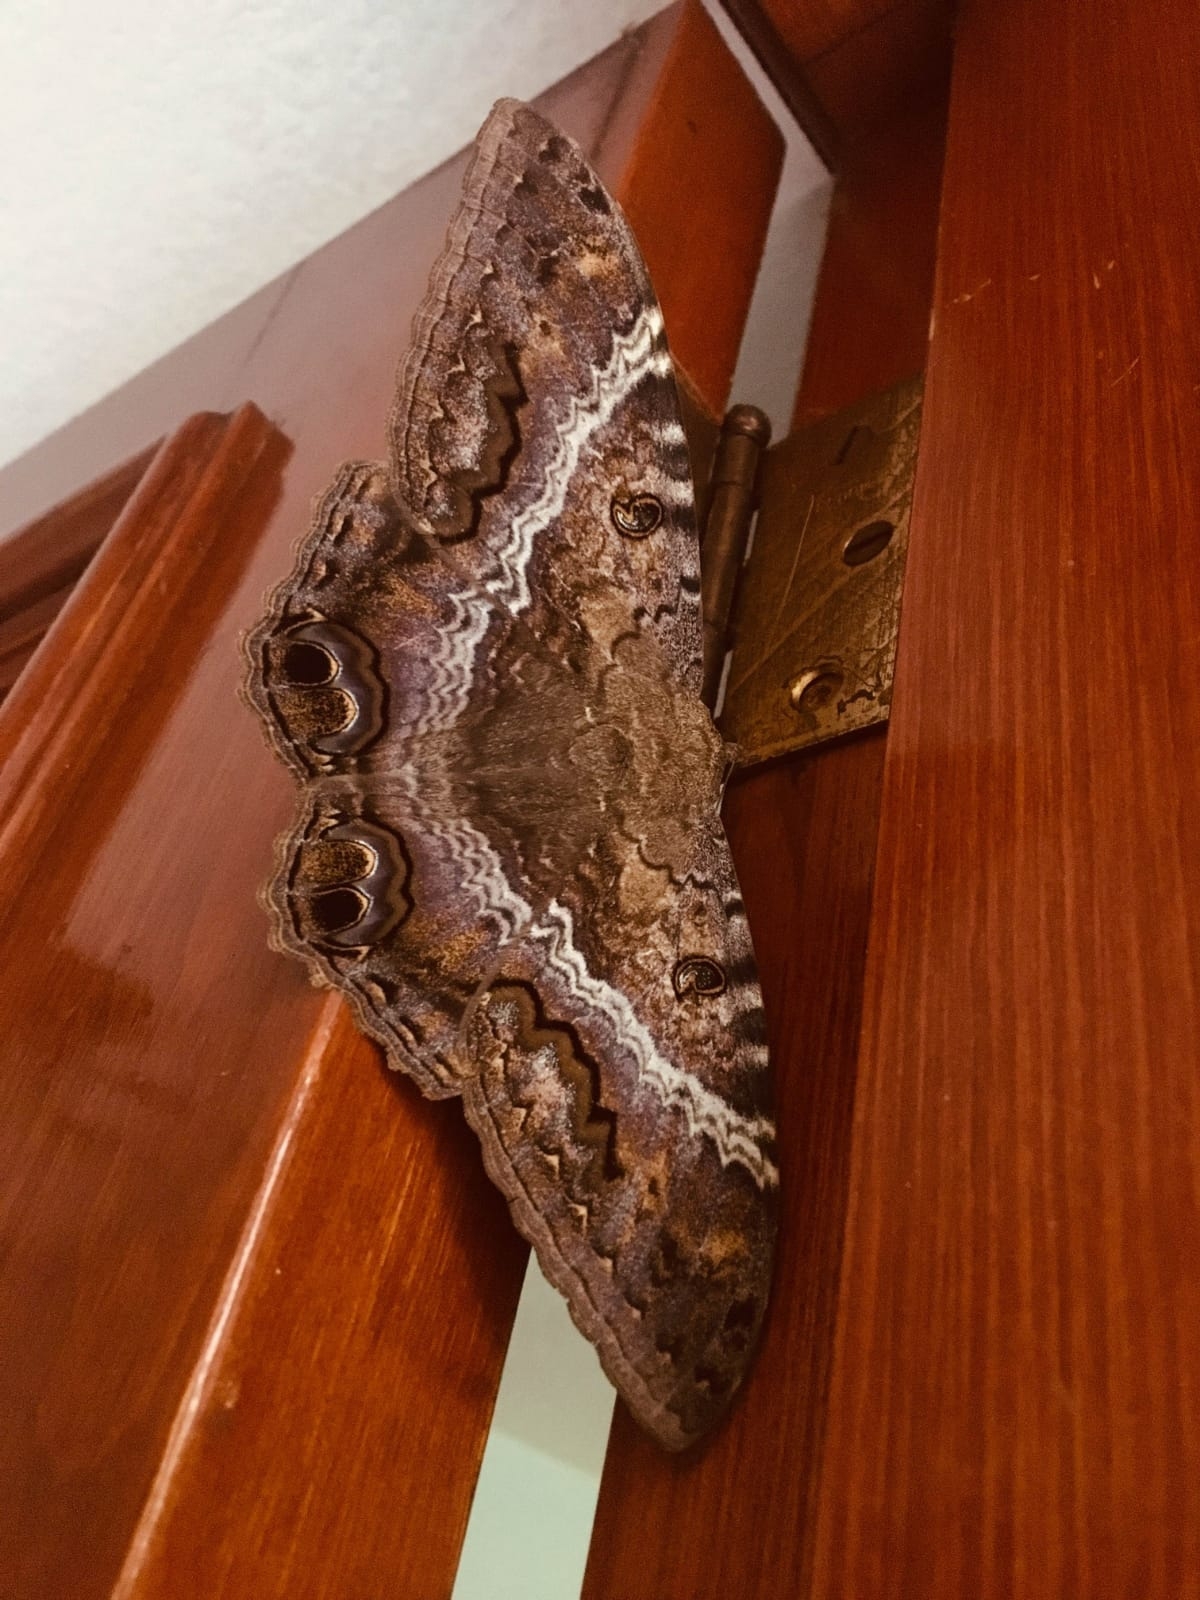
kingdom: Animalia
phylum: Arthropoda
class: Insecta
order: Lepidoptera
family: Erebidae
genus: Ascalapha
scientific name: Ascalapha odorata
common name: Black witch
